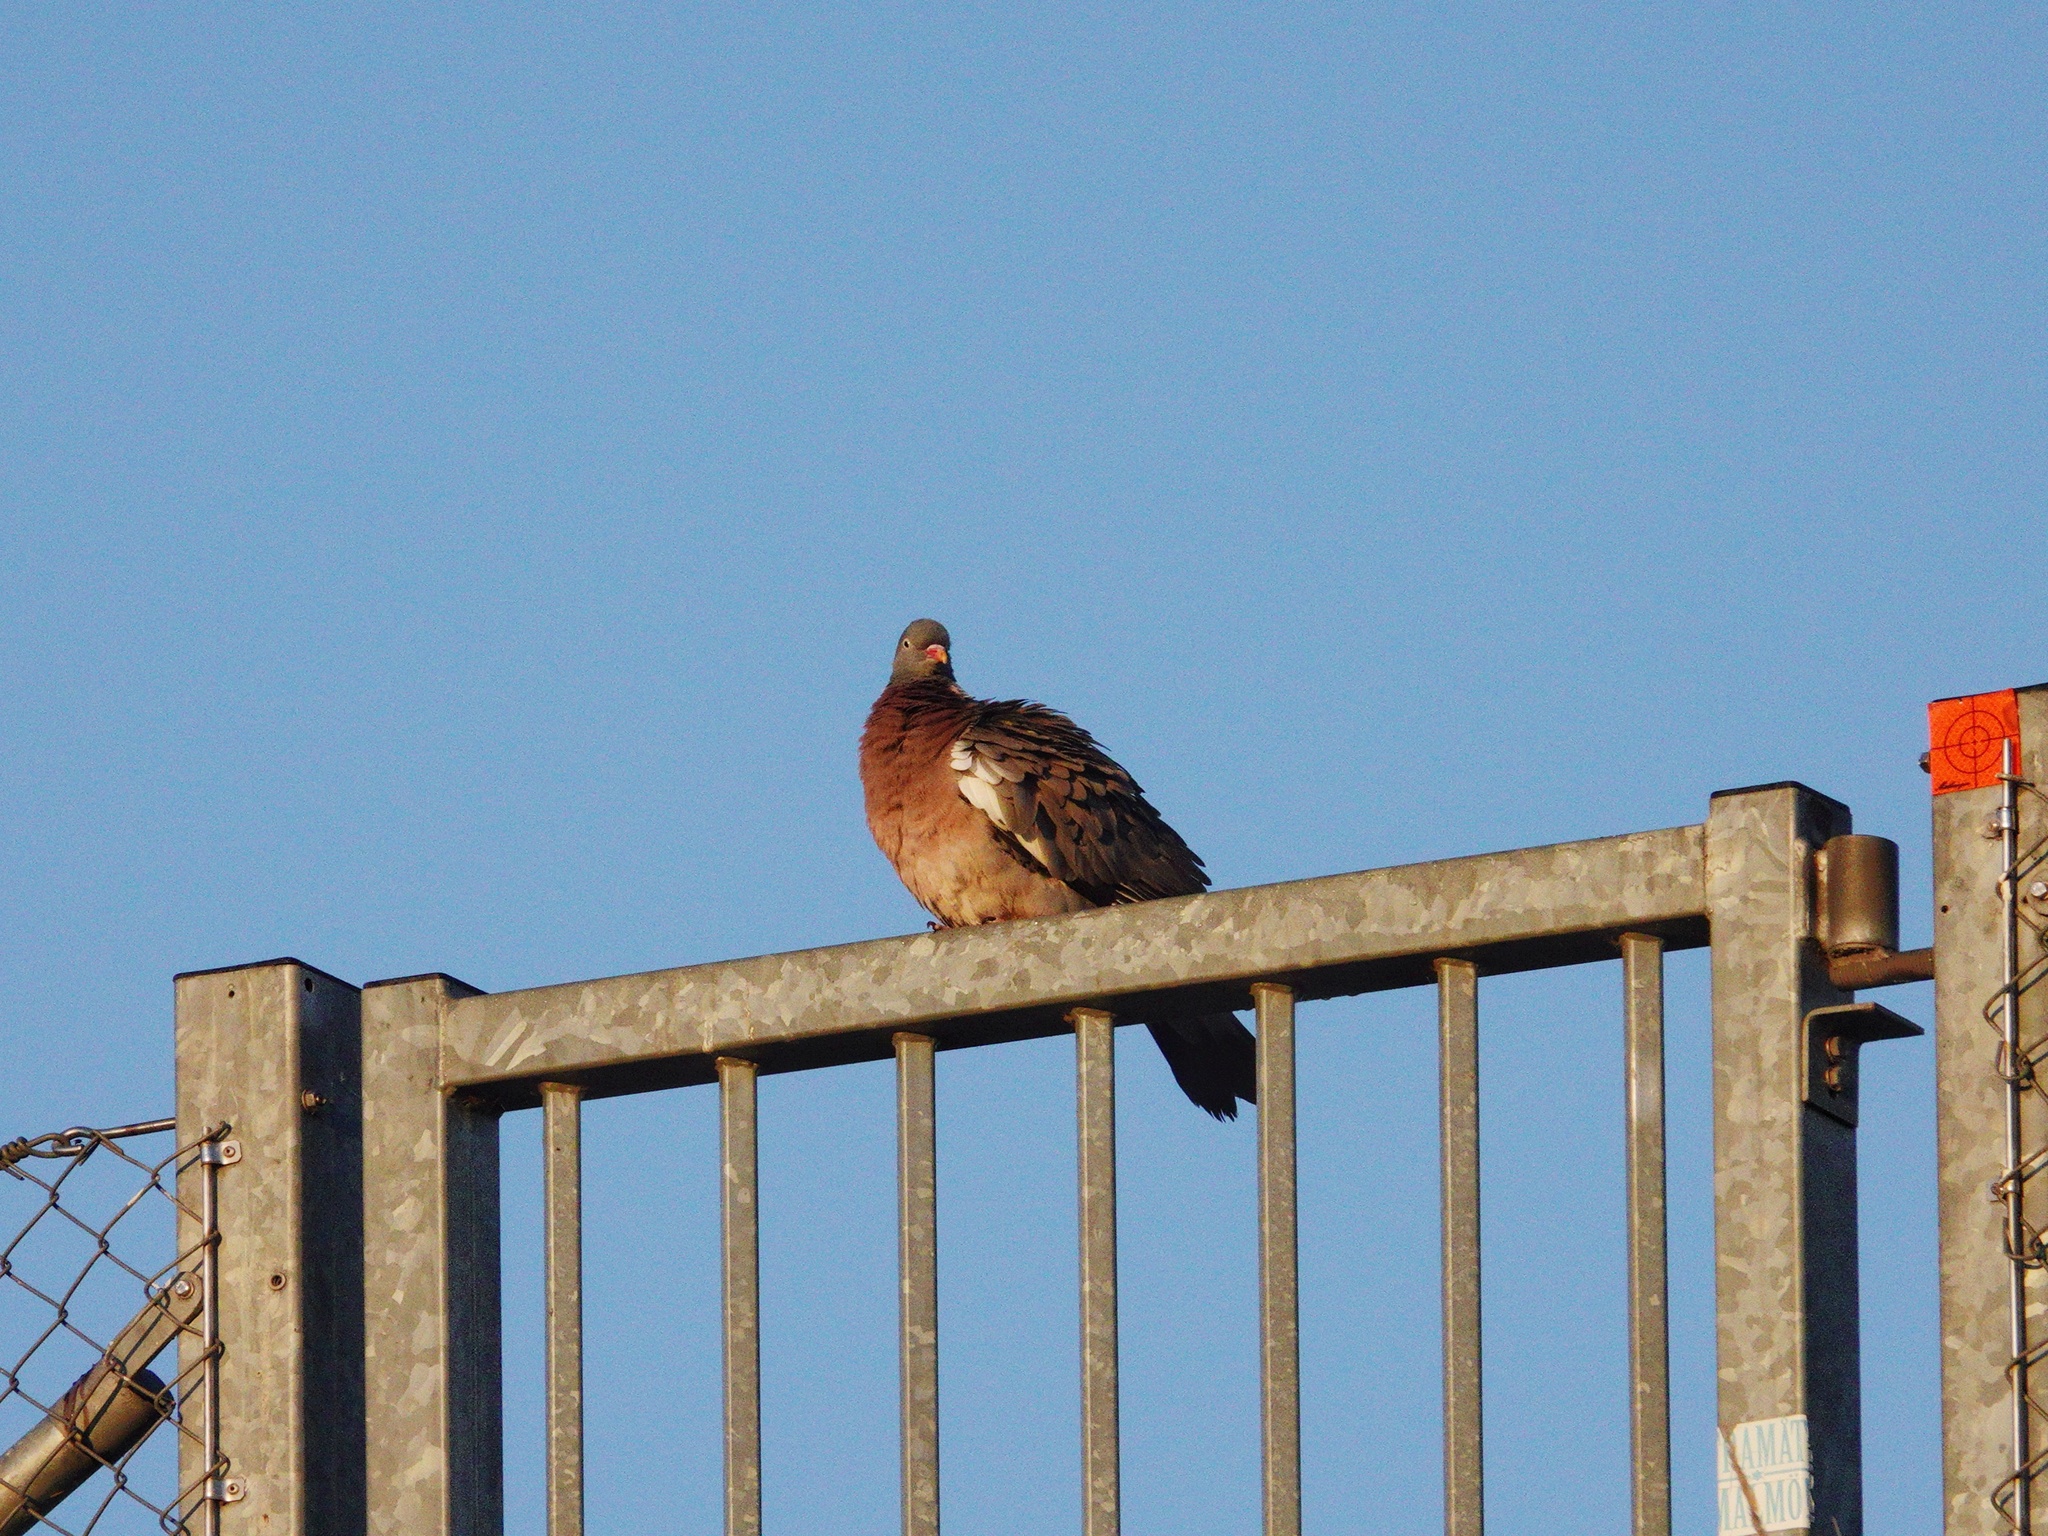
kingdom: Animalia
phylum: Chordata
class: Aves
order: Columbiformes
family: Columbidae
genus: Columba
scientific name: Columba palumbus
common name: Common wood pigeon
